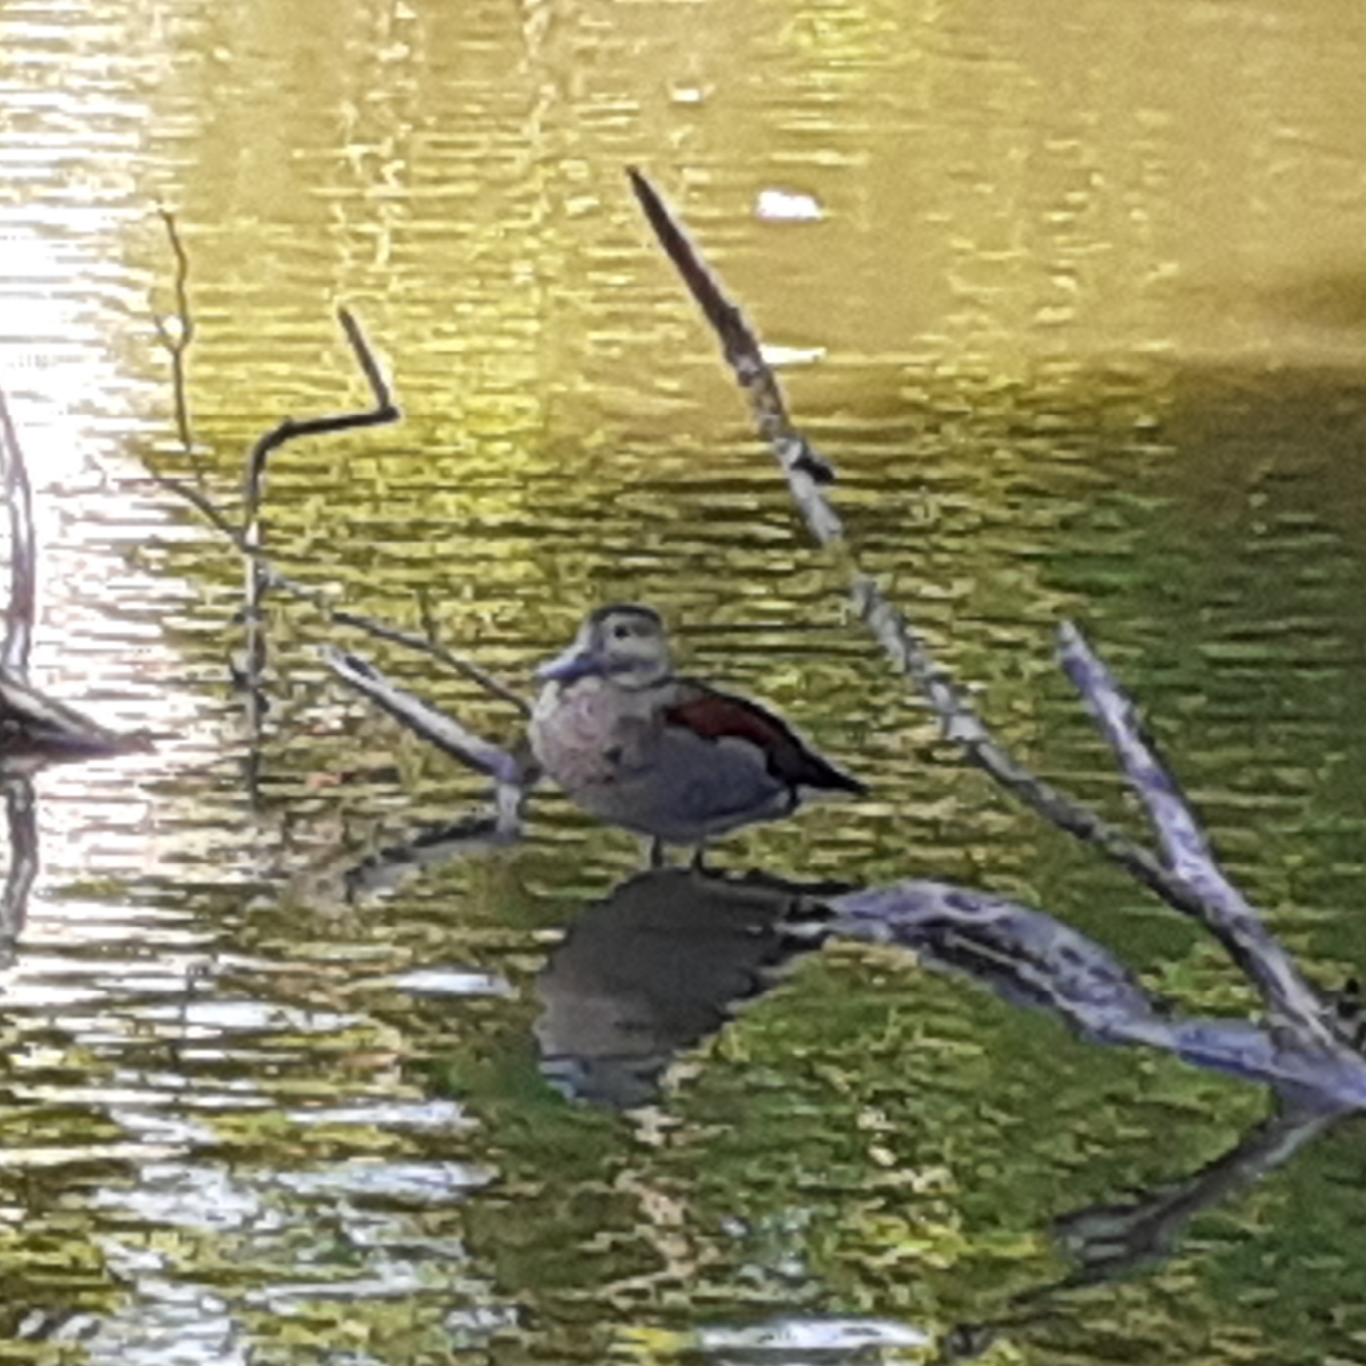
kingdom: Animalia
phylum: Chordata
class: Aves
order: Anseriformes
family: Anatidae
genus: Callonetta
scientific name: Callonetta leucophrys
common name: Ringed teal
